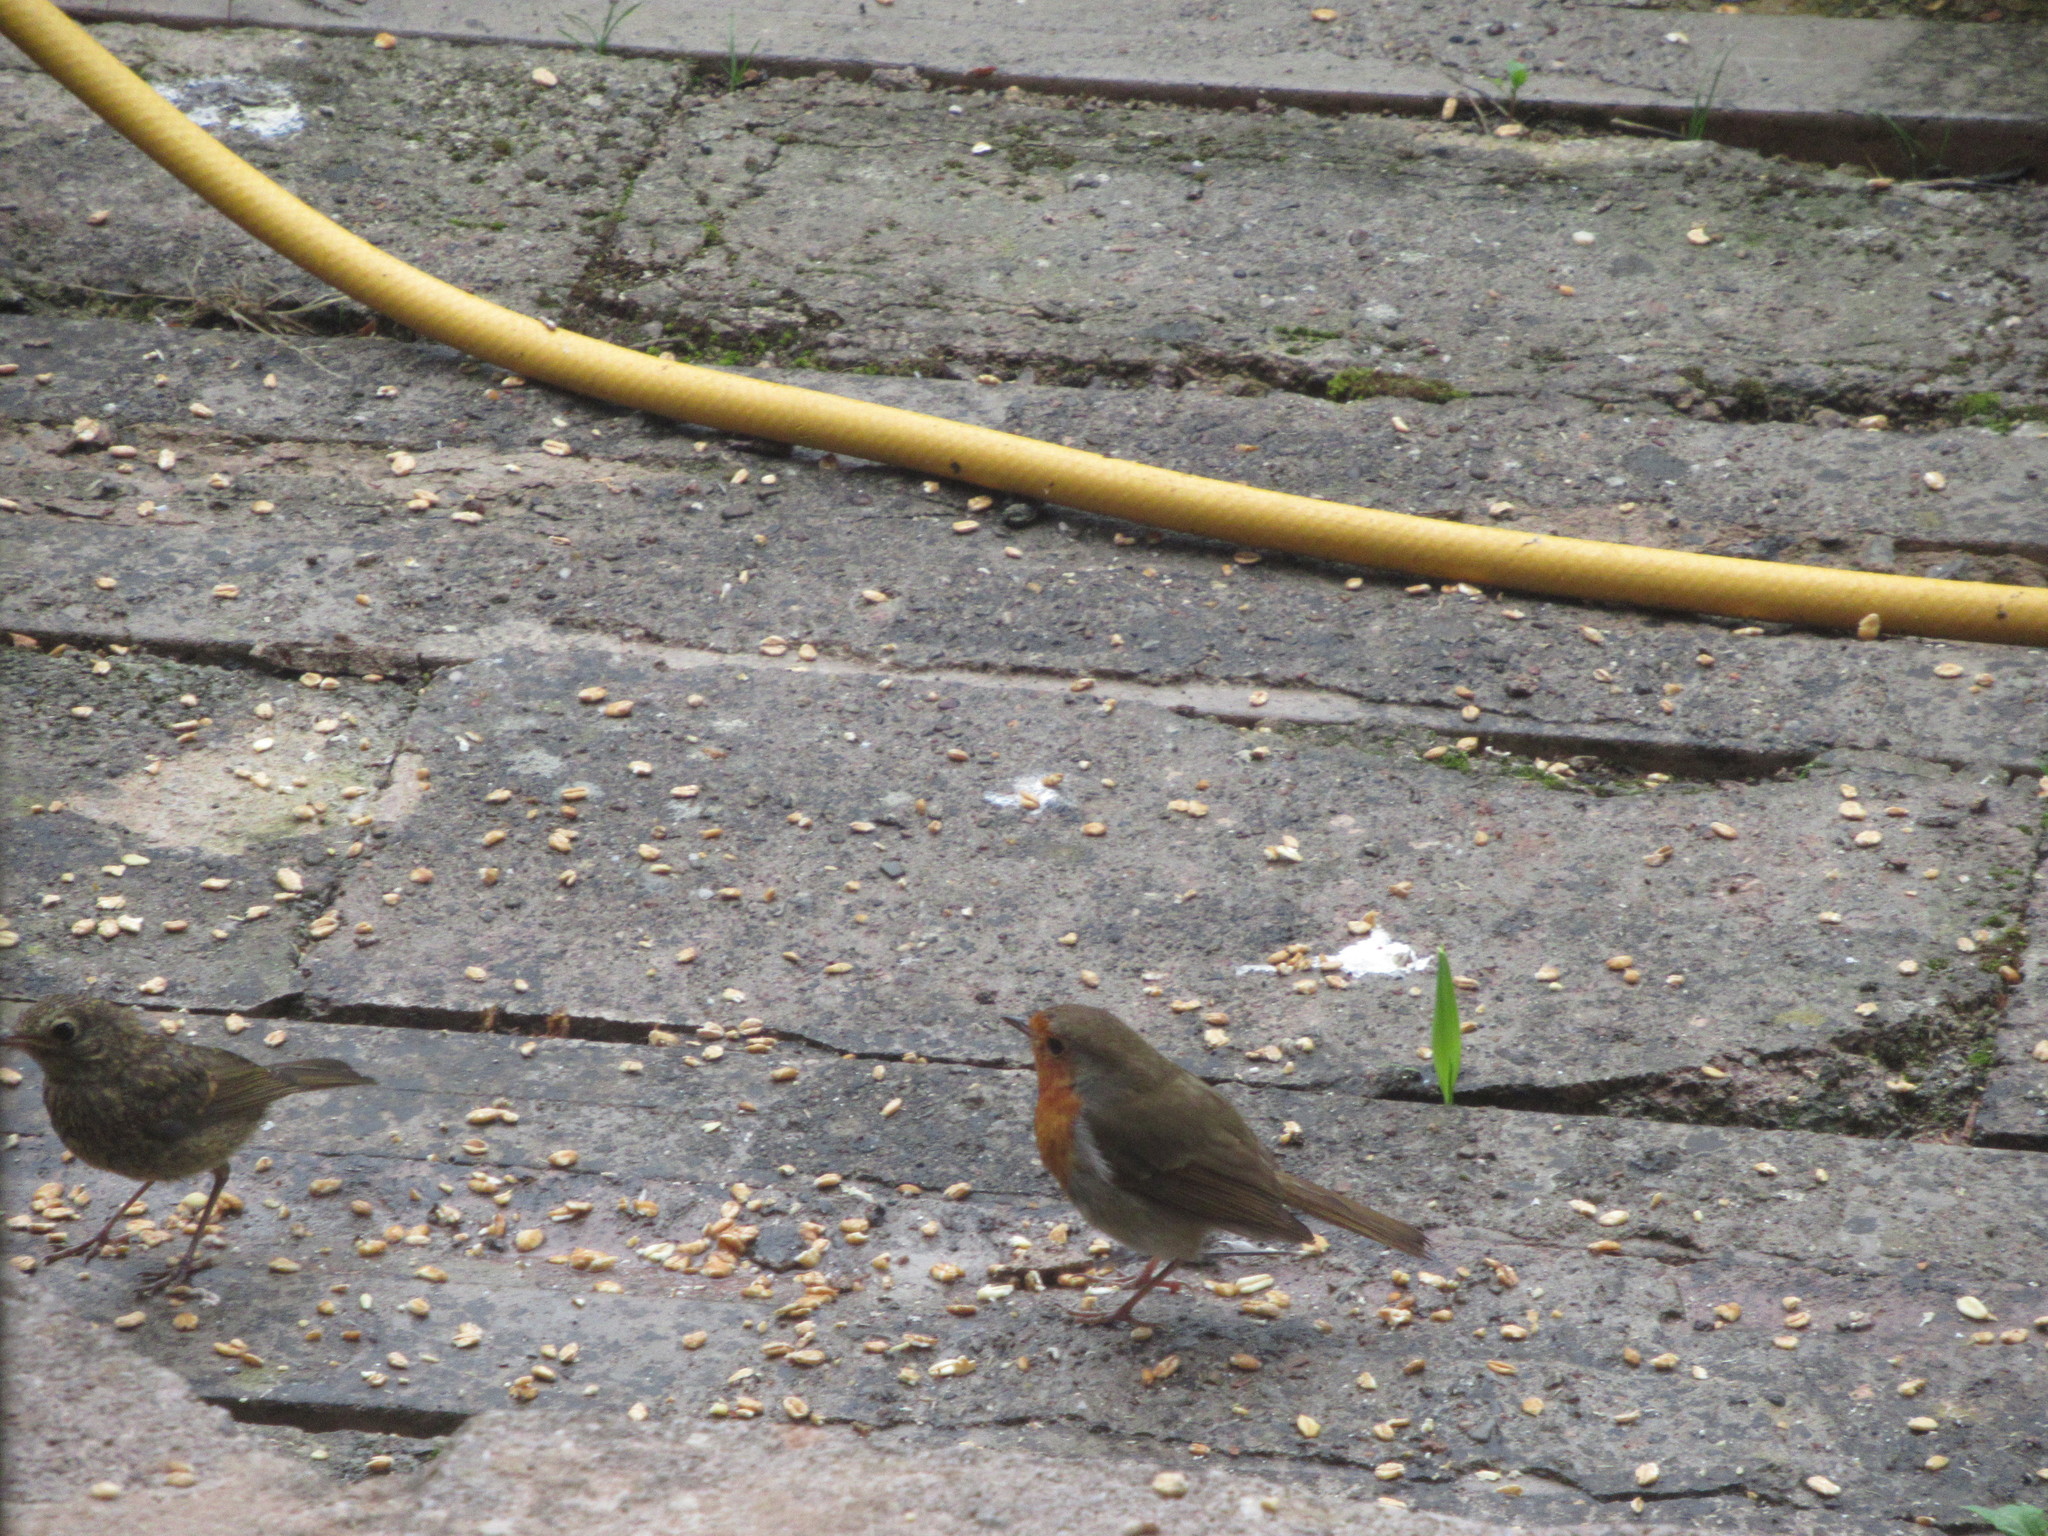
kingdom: Animalia
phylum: Chordata
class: Aves
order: Passeriformes
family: Muscicapidae
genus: Erithacus
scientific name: Erithacus rubecula
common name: European robin
